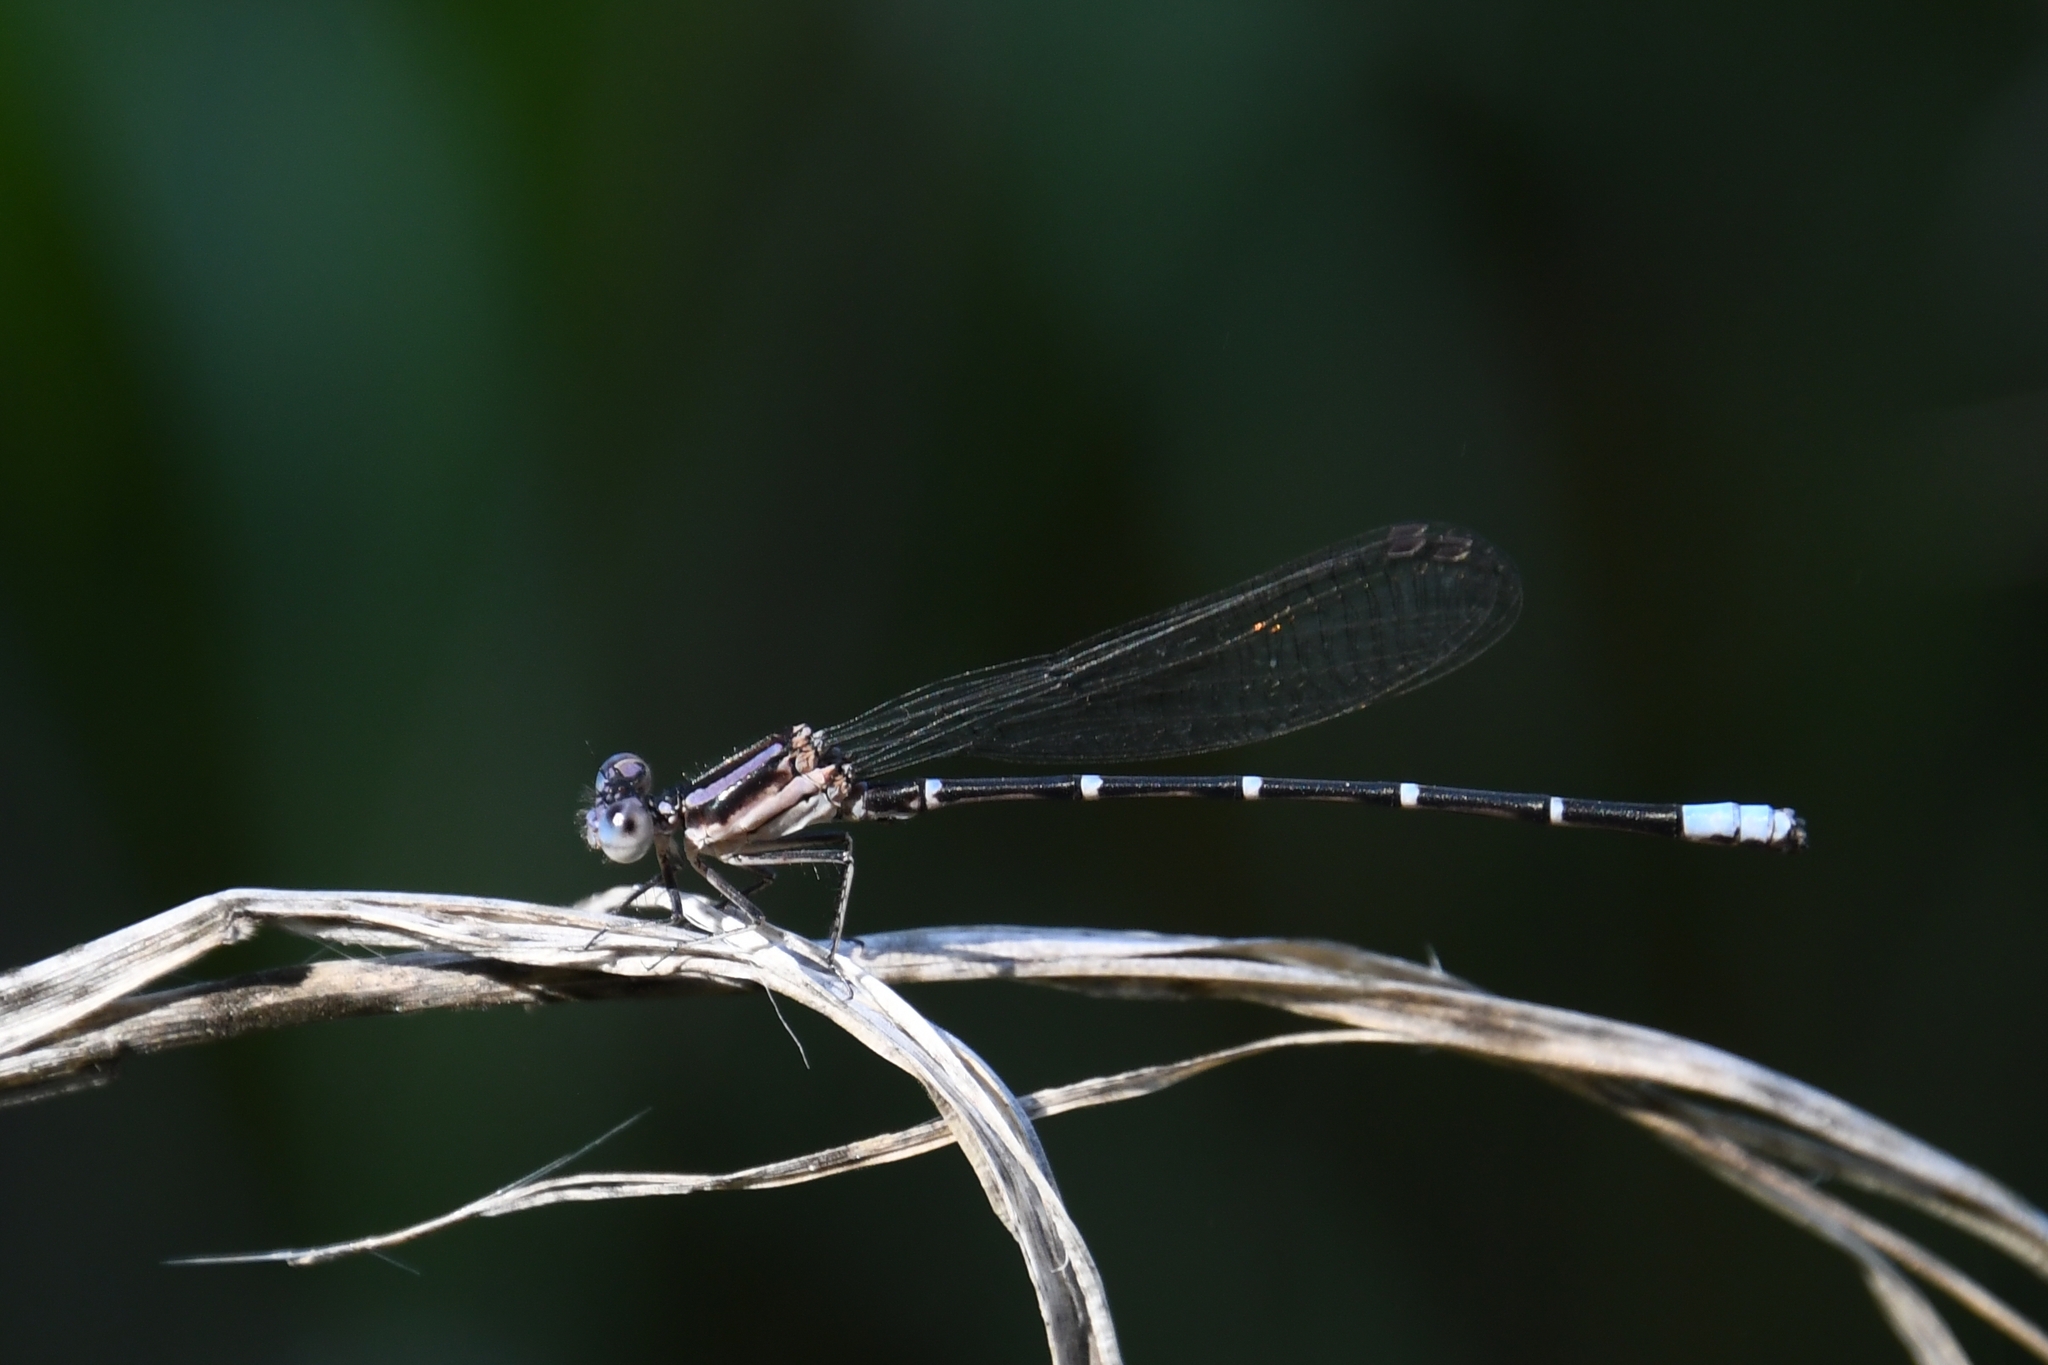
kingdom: Animalia
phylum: Arthropoda
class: Insecta
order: Odonata
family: Coenagrionidae
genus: Argia
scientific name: Argia sedula
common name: Blue-ringed dancer
